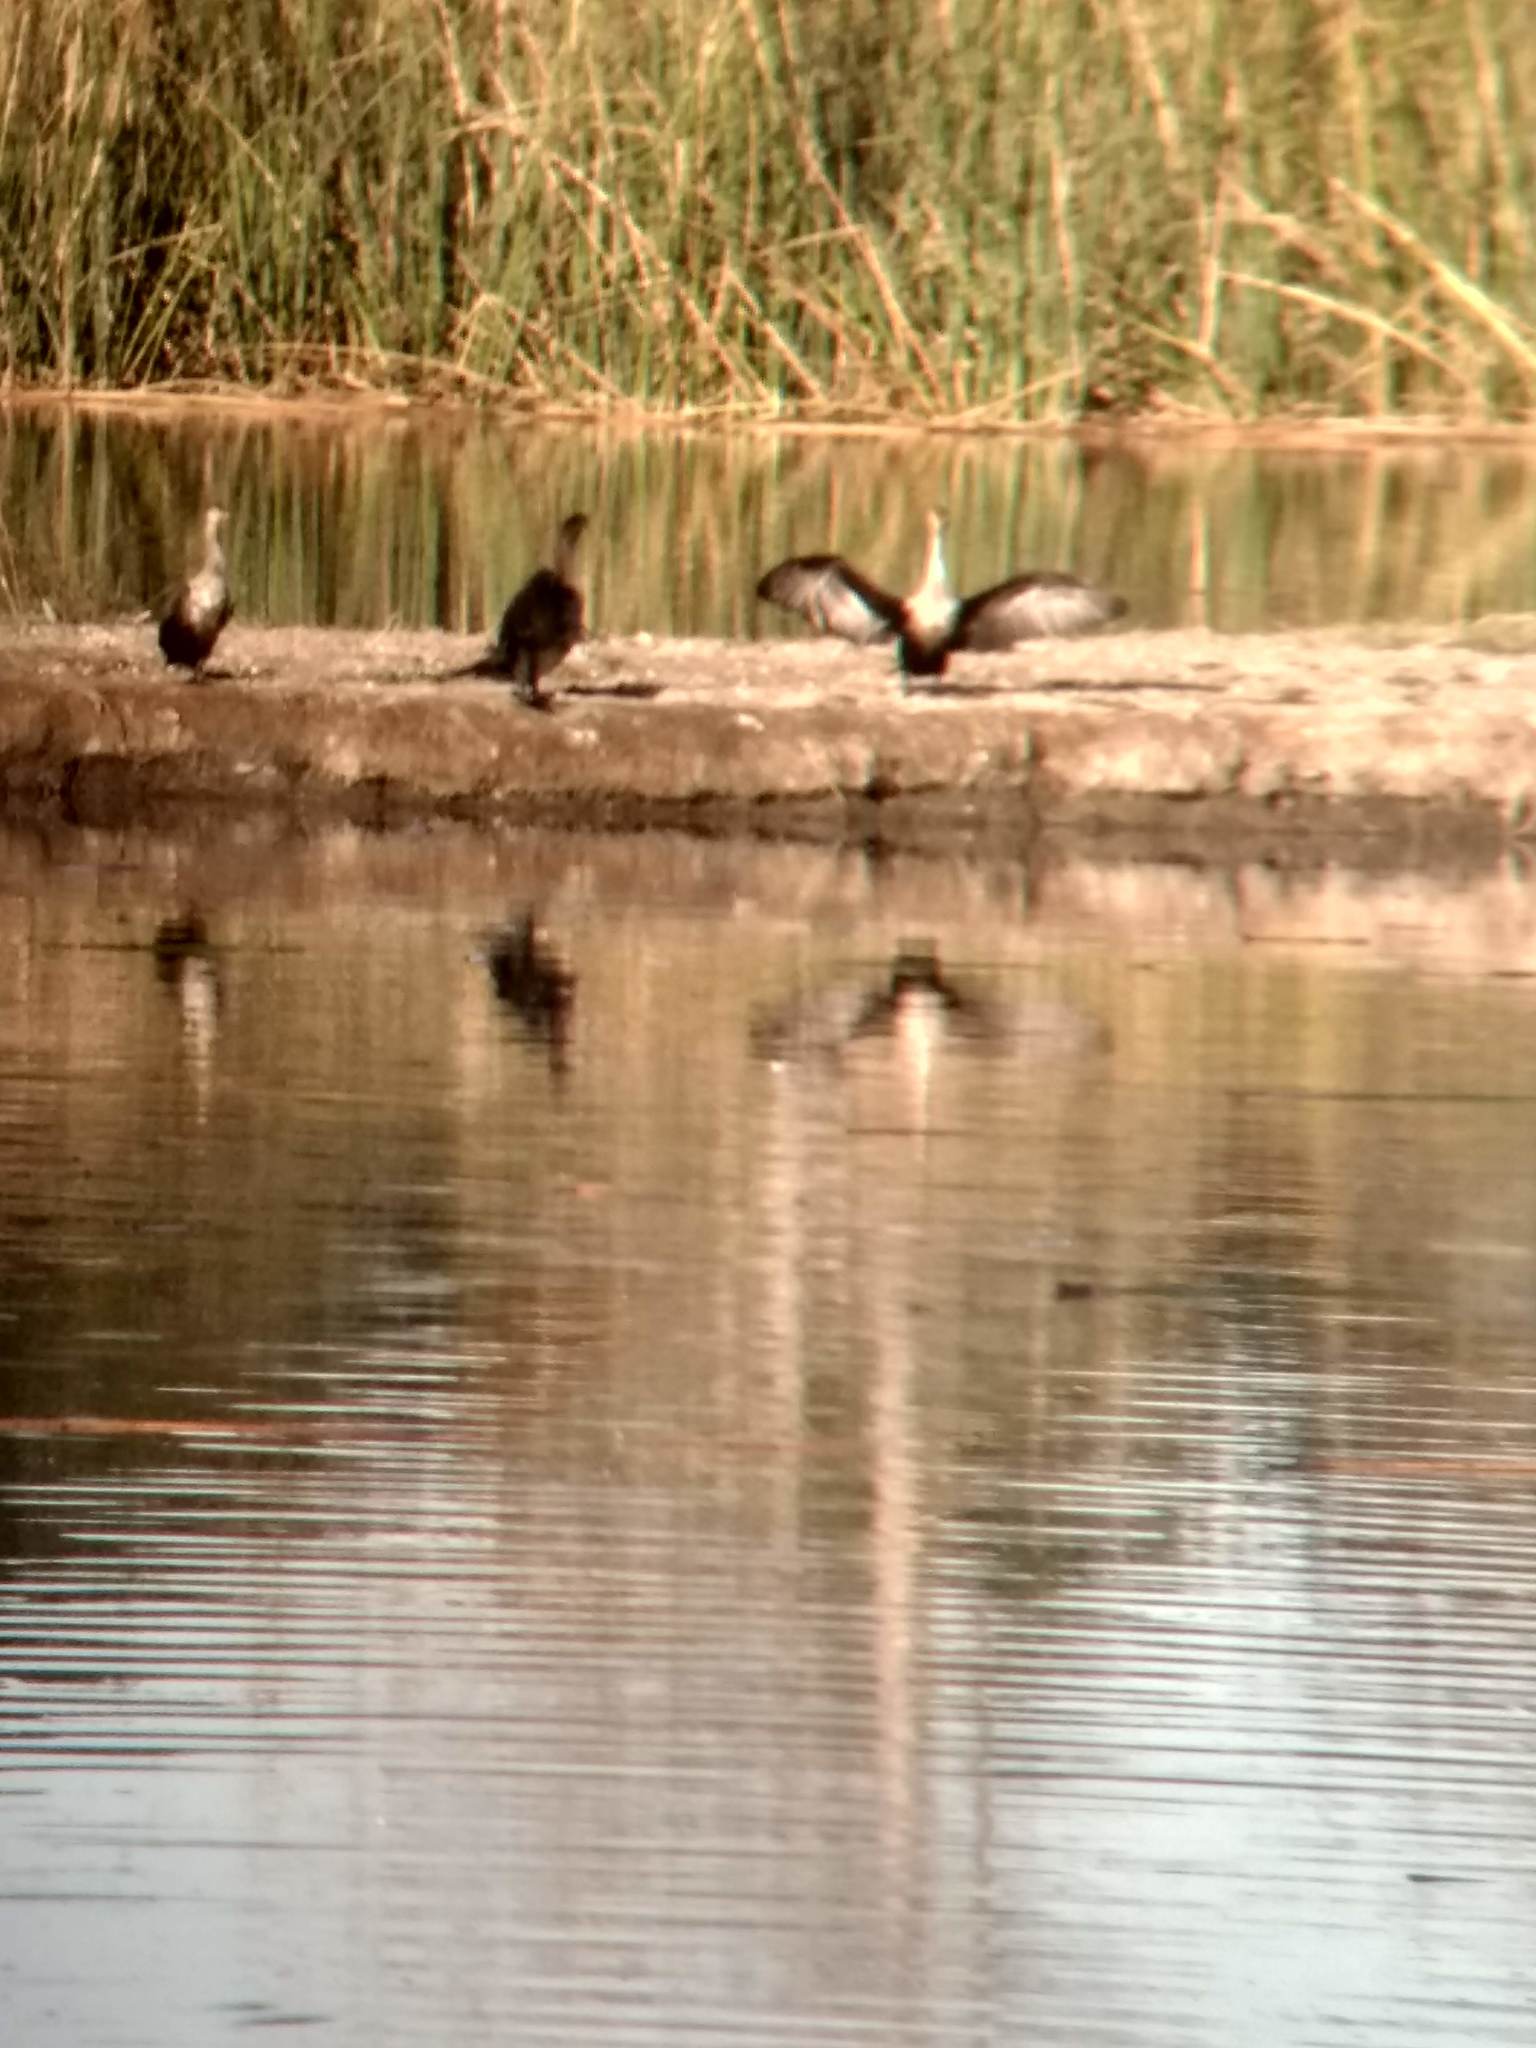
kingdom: Animalia
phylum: Chordata
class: Aves
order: Suliformes
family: Phalacrocoracidae
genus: Phalacrocorax
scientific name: Phalacrocorax auritus
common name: Double-crested cormorant
